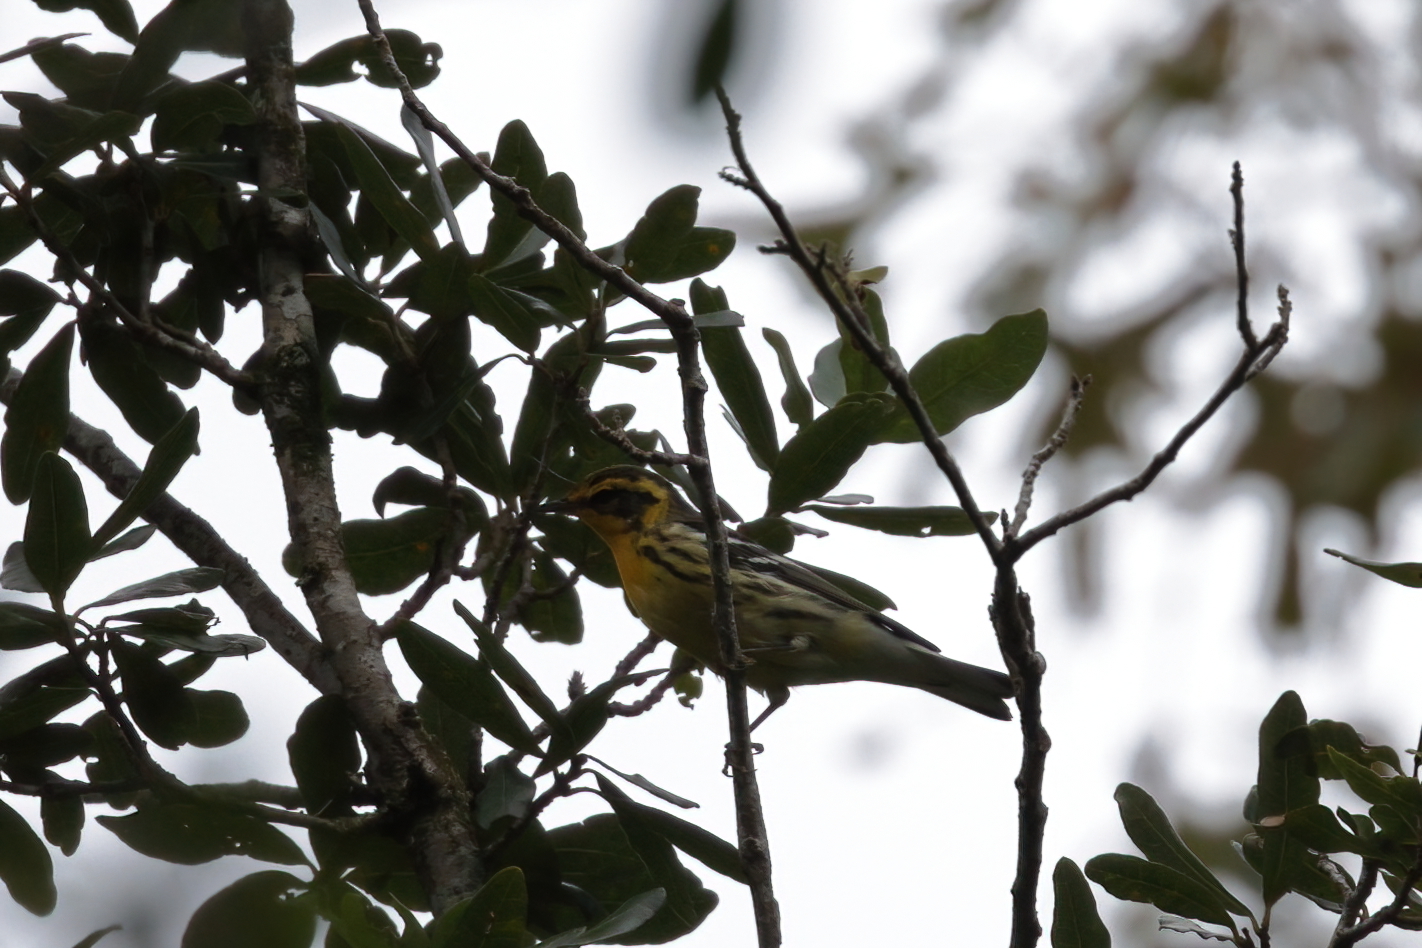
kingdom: Animalia
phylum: Chordata
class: Aves
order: Passeriformes
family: Parulidae
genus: Setophaga
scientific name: Setophaga fusca
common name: Blackburnian warbler
